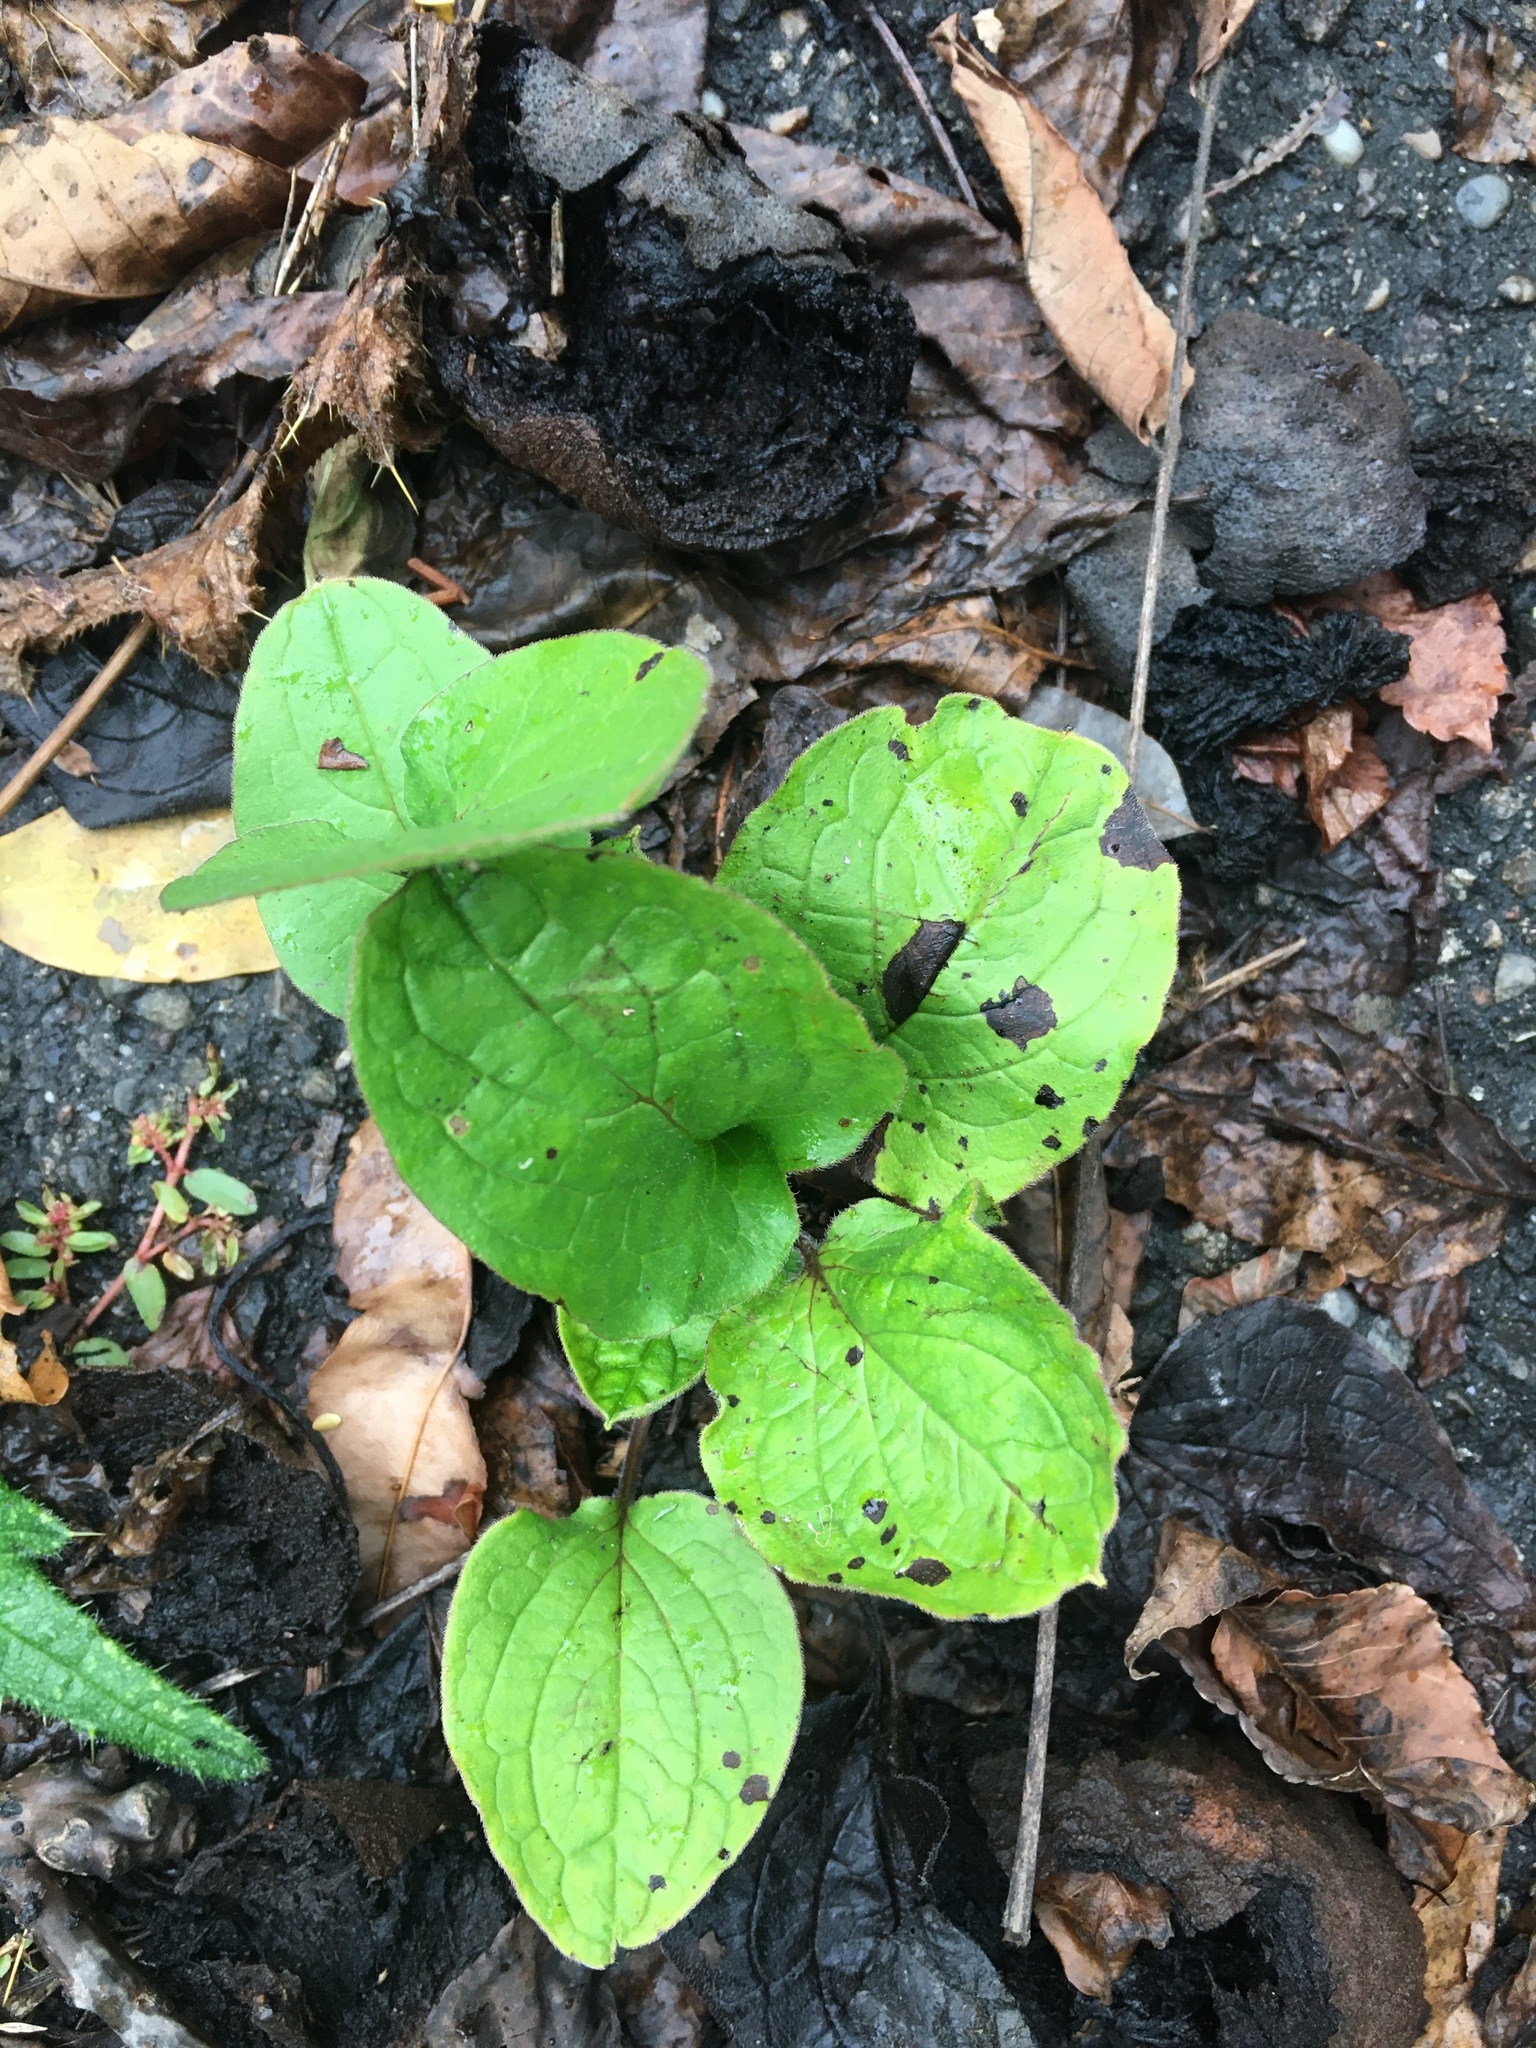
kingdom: Plantae
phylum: Tracheophyta
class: Magnoliopsida
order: Boraginales
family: Boraginaceae
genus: Hackelia
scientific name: Hackelia virginiana
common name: Beggar's-lice
